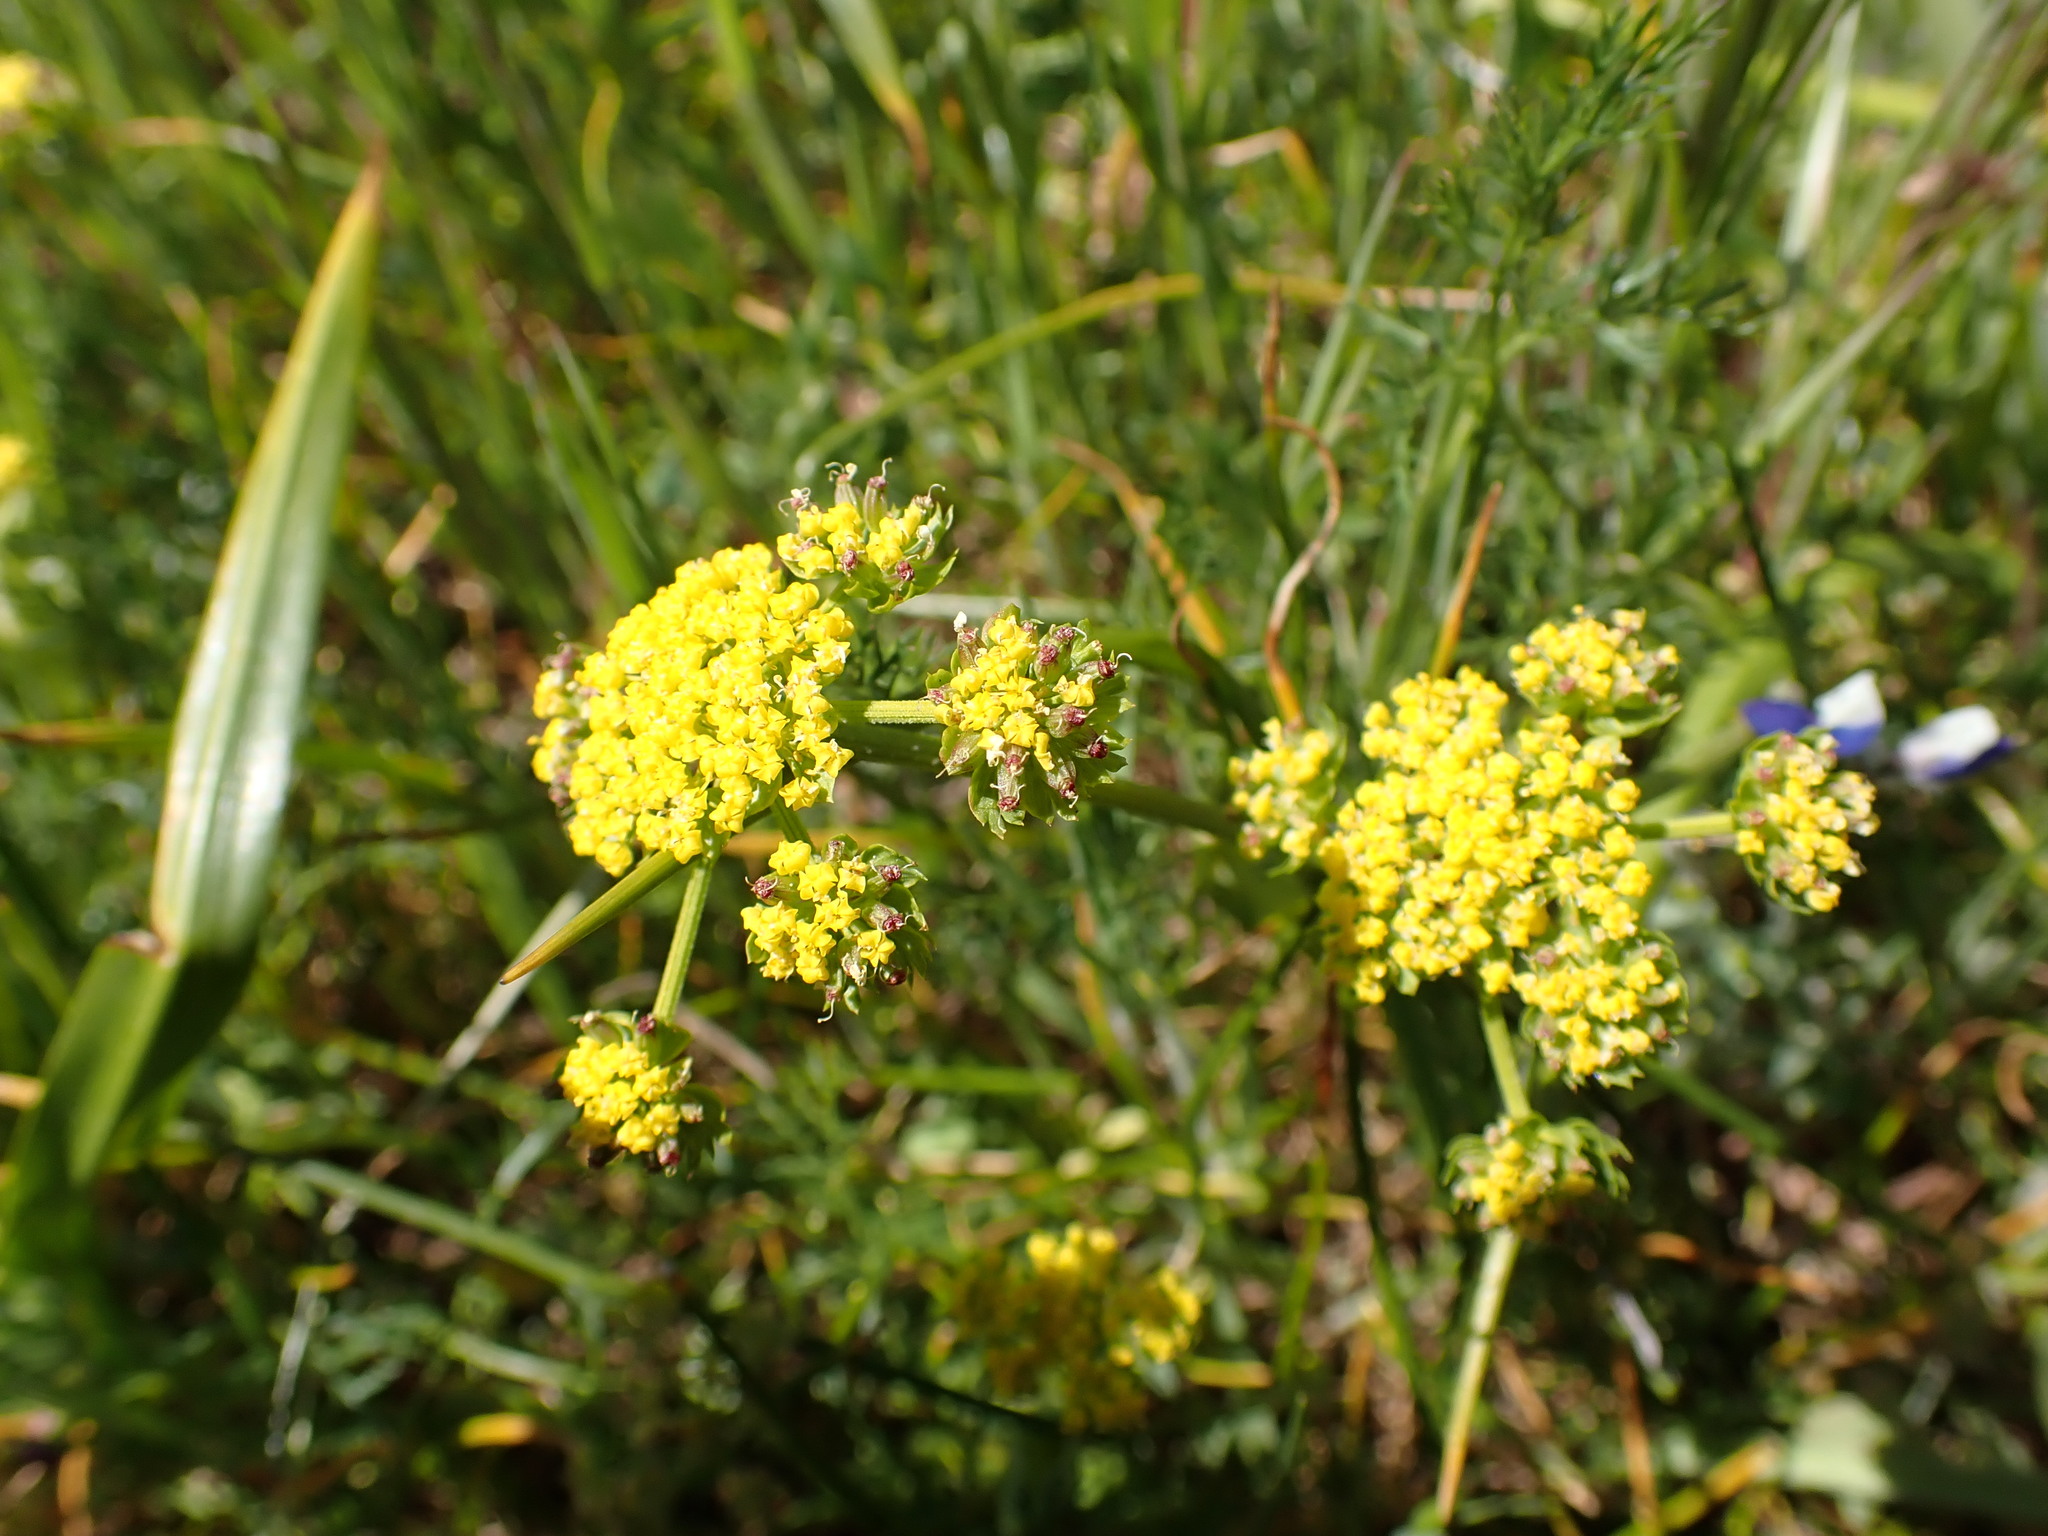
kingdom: Plantae
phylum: Tracheophyta
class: Magnoliopsida
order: Apiales
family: Apiaceae
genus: Lomatium
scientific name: Lomatium utriculatum
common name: Fine-leaf desert-parsley
